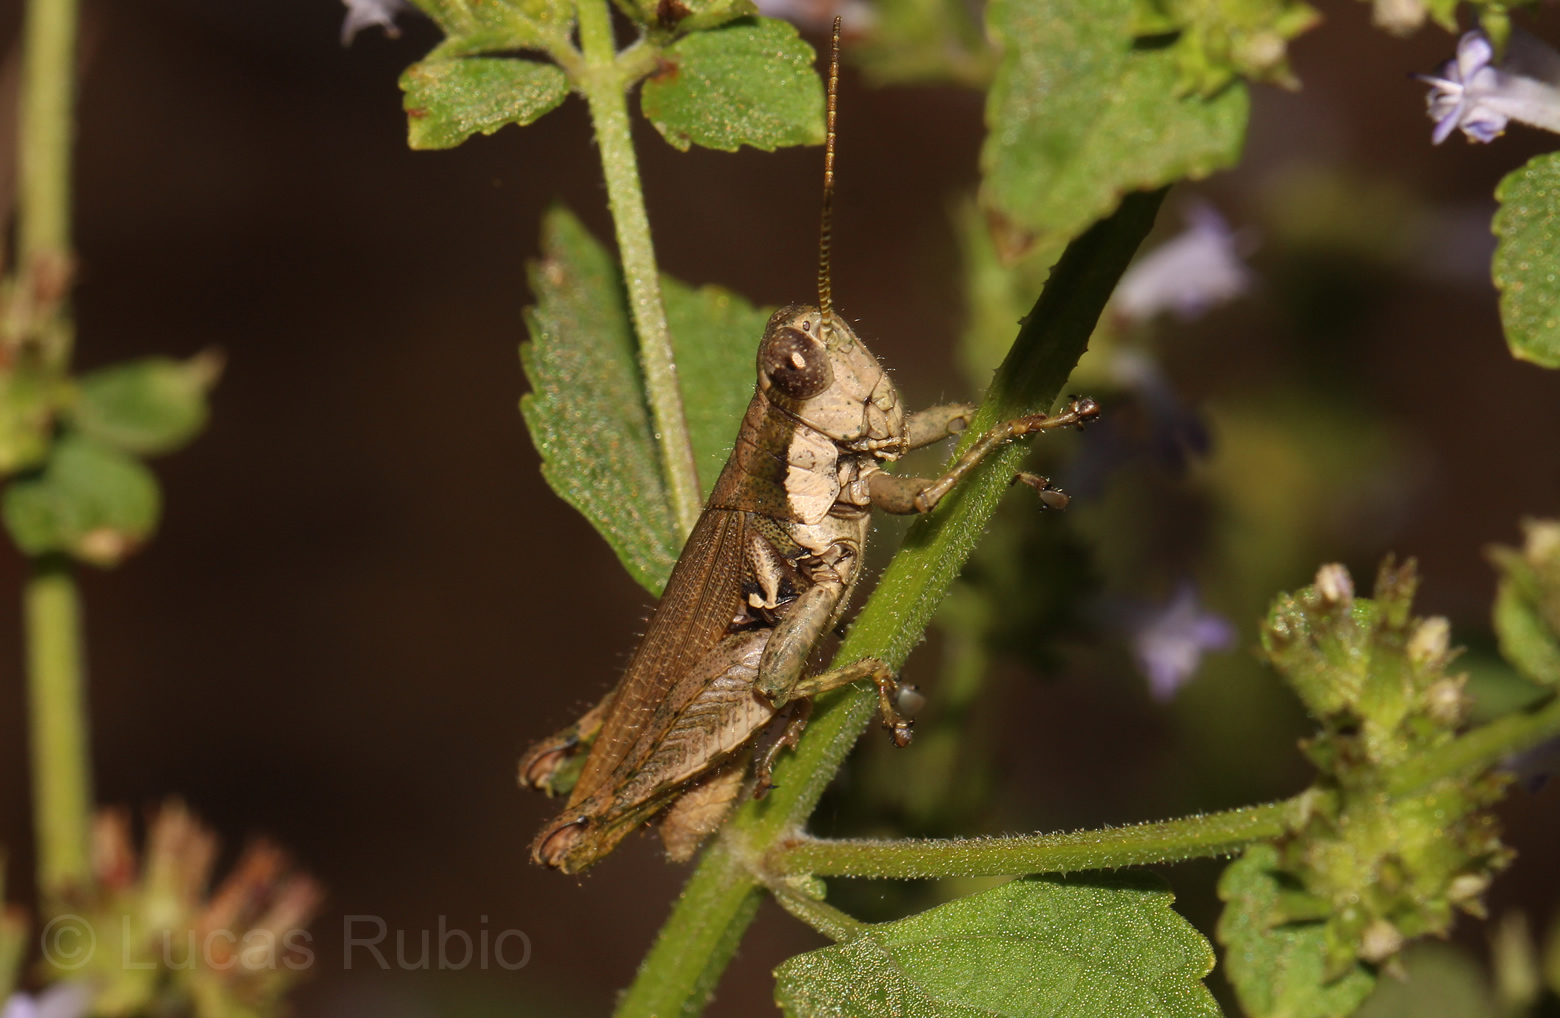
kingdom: Animalia
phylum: Arthropoda
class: Insecta
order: Orthoptera
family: Acrididae
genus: Ronderosia
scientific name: Ronderosia bergii
